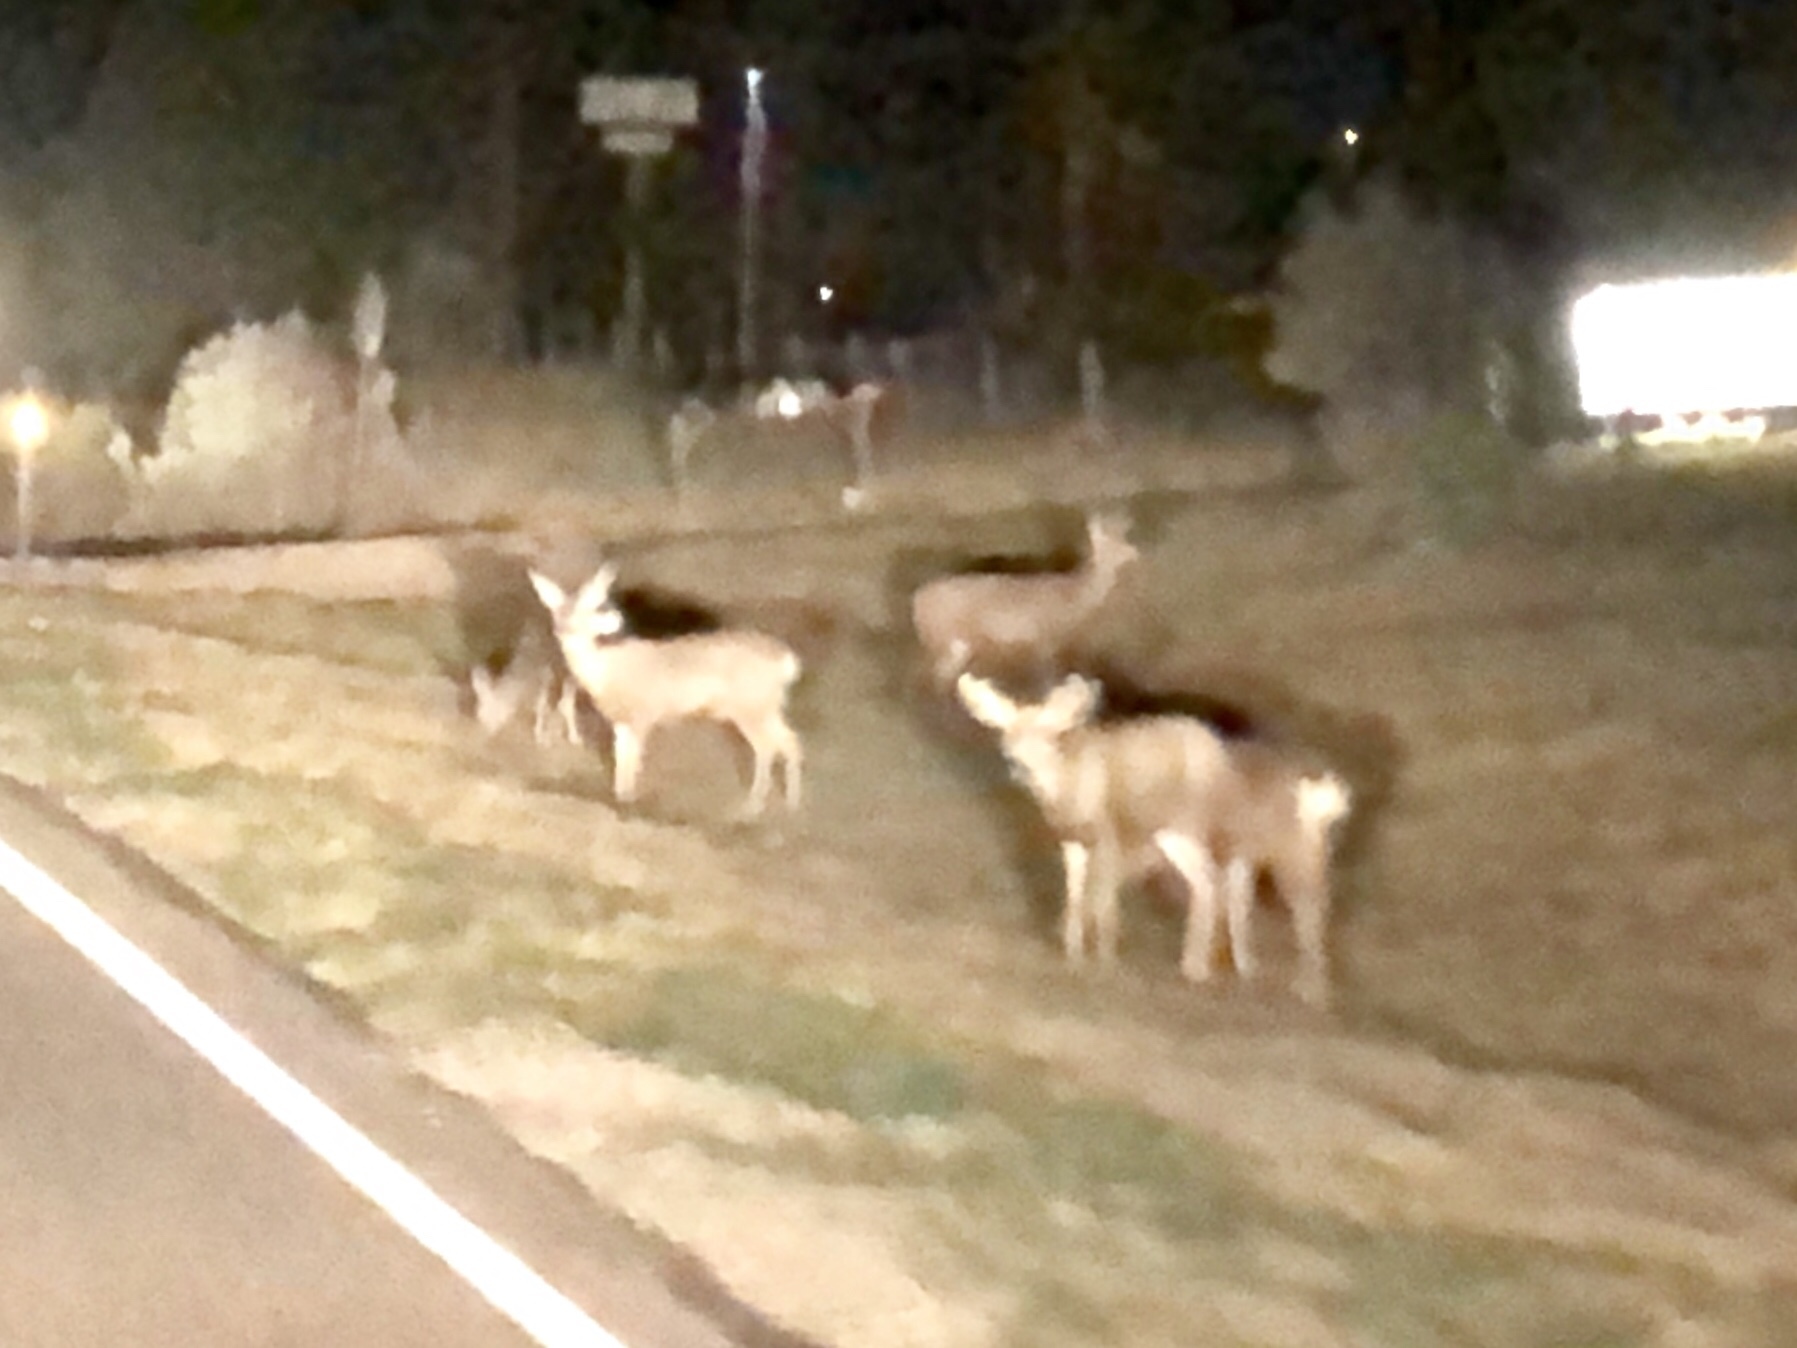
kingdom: Animalia
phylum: Chordata
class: Mammalia
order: Artiodactyla
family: Cervidae
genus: Odocoileus
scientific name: Odocoileus hemionus
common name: Mule deer
